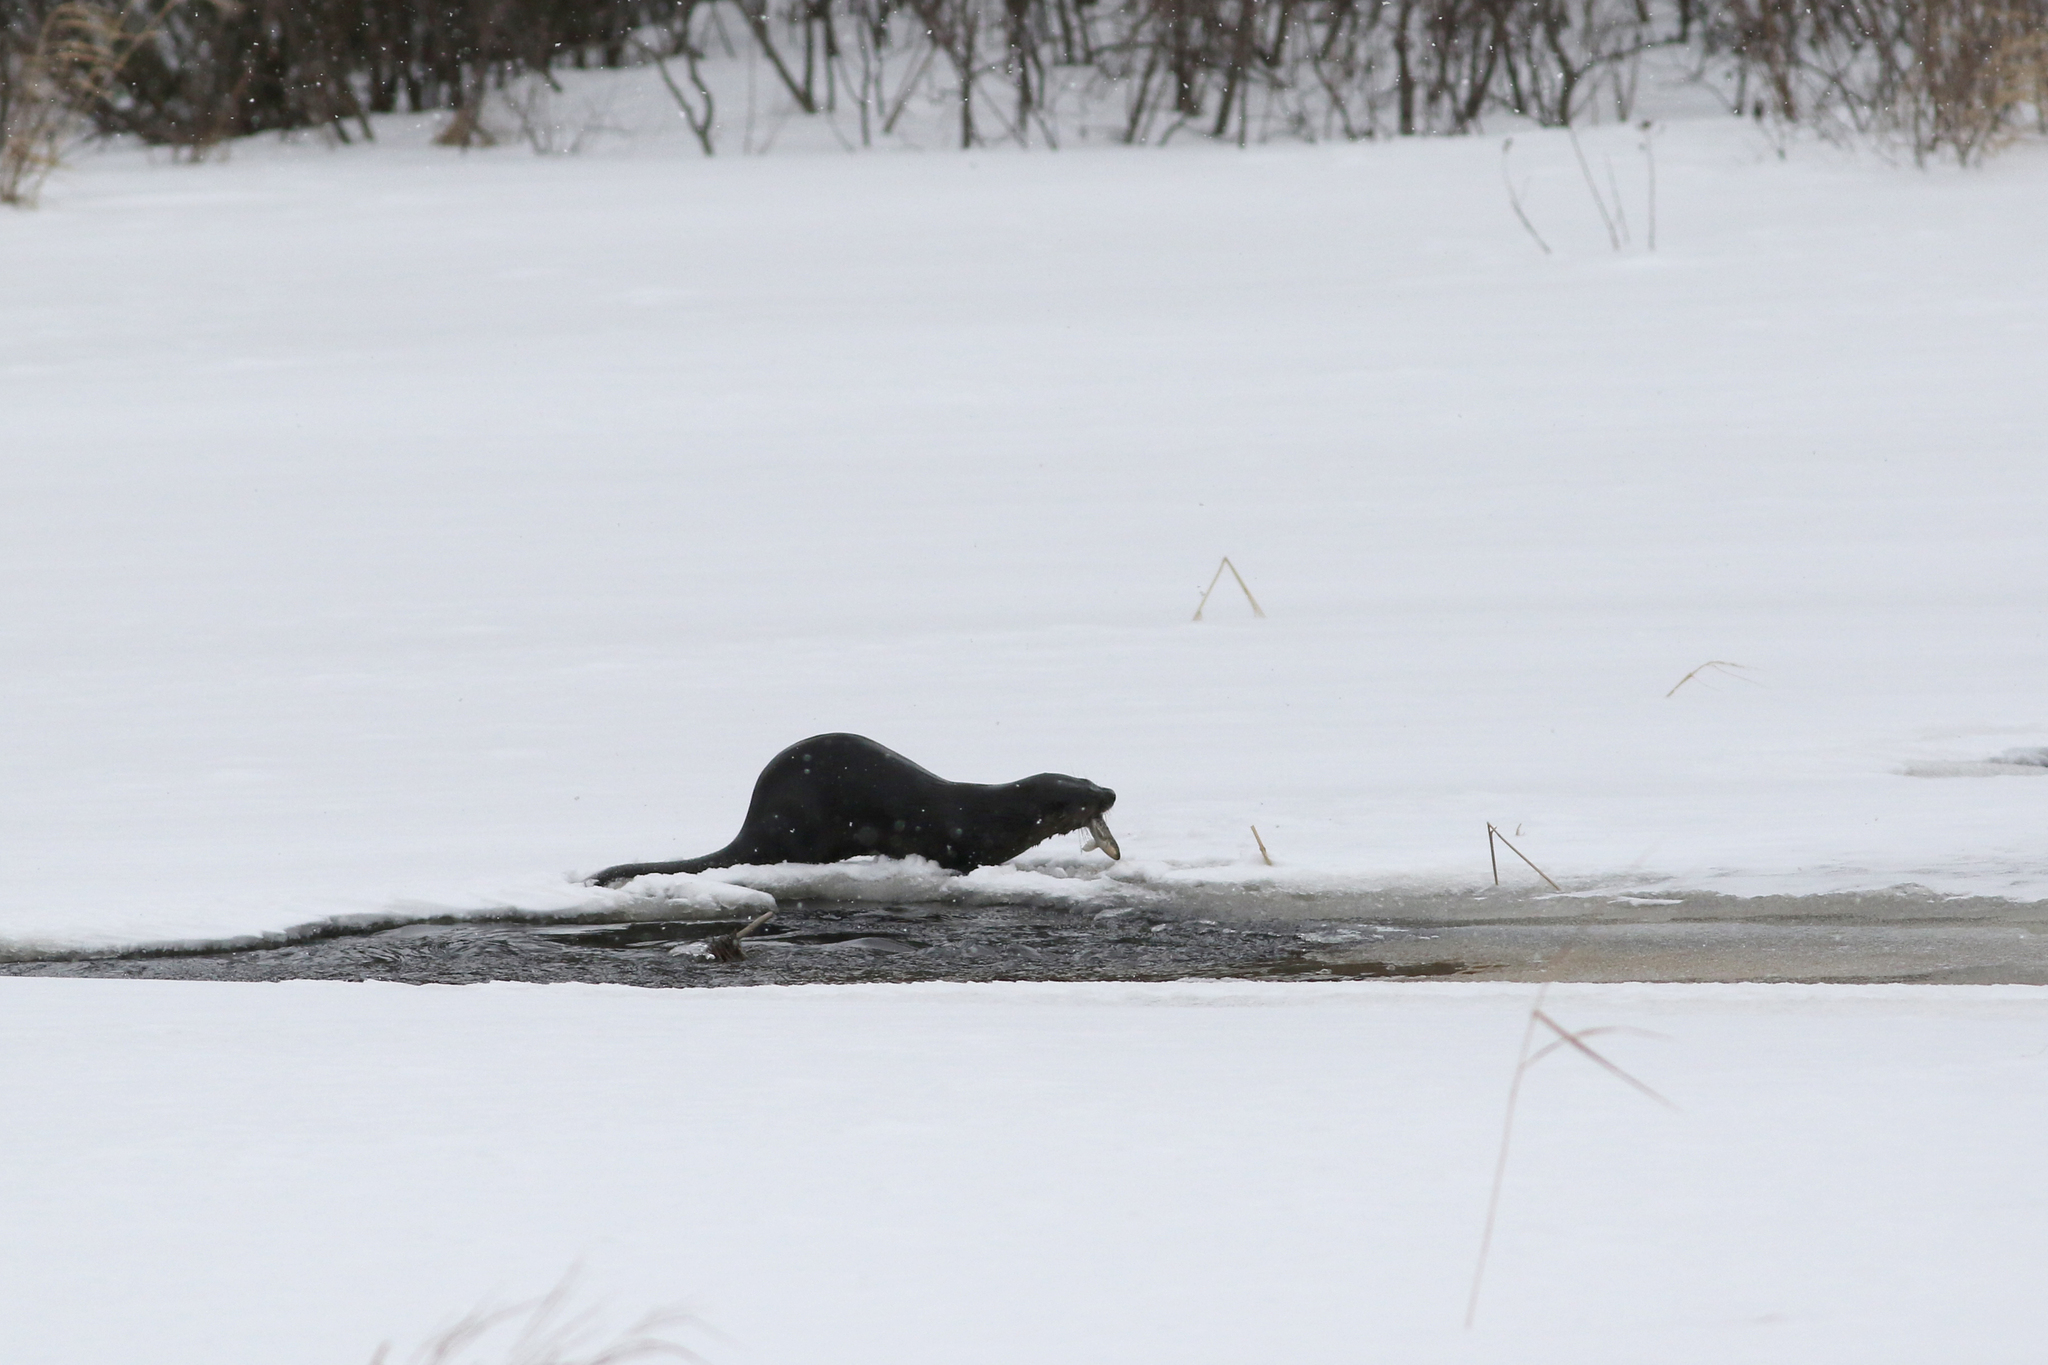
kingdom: Animalia
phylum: Chordata
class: Mammalia
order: Carnivora
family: Mustelidae
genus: Lontra
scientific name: Lontra canadensis
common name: North american river otter
